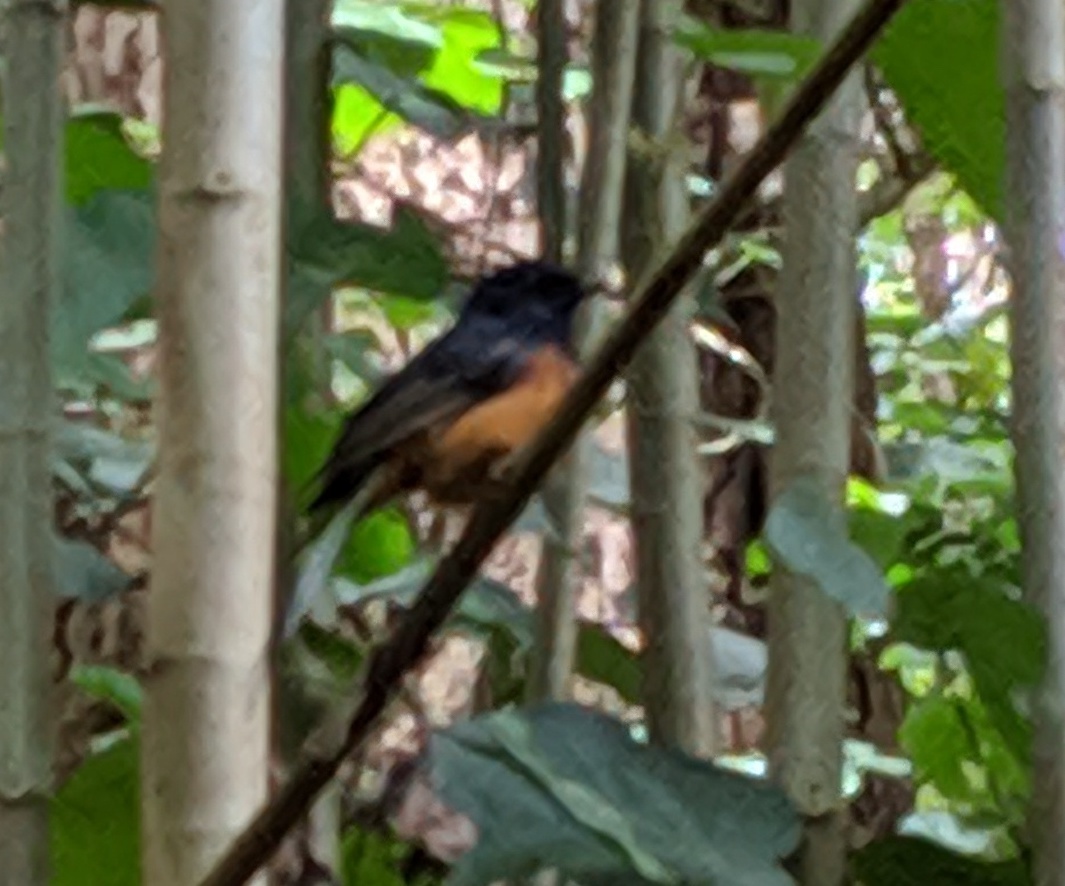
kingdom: Animalia
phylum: Chordata
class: Aves
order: Passeriformes
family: Muscicapidae
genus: Copsychus
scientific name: Copsychus malabaricus
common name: White-rumped shama
